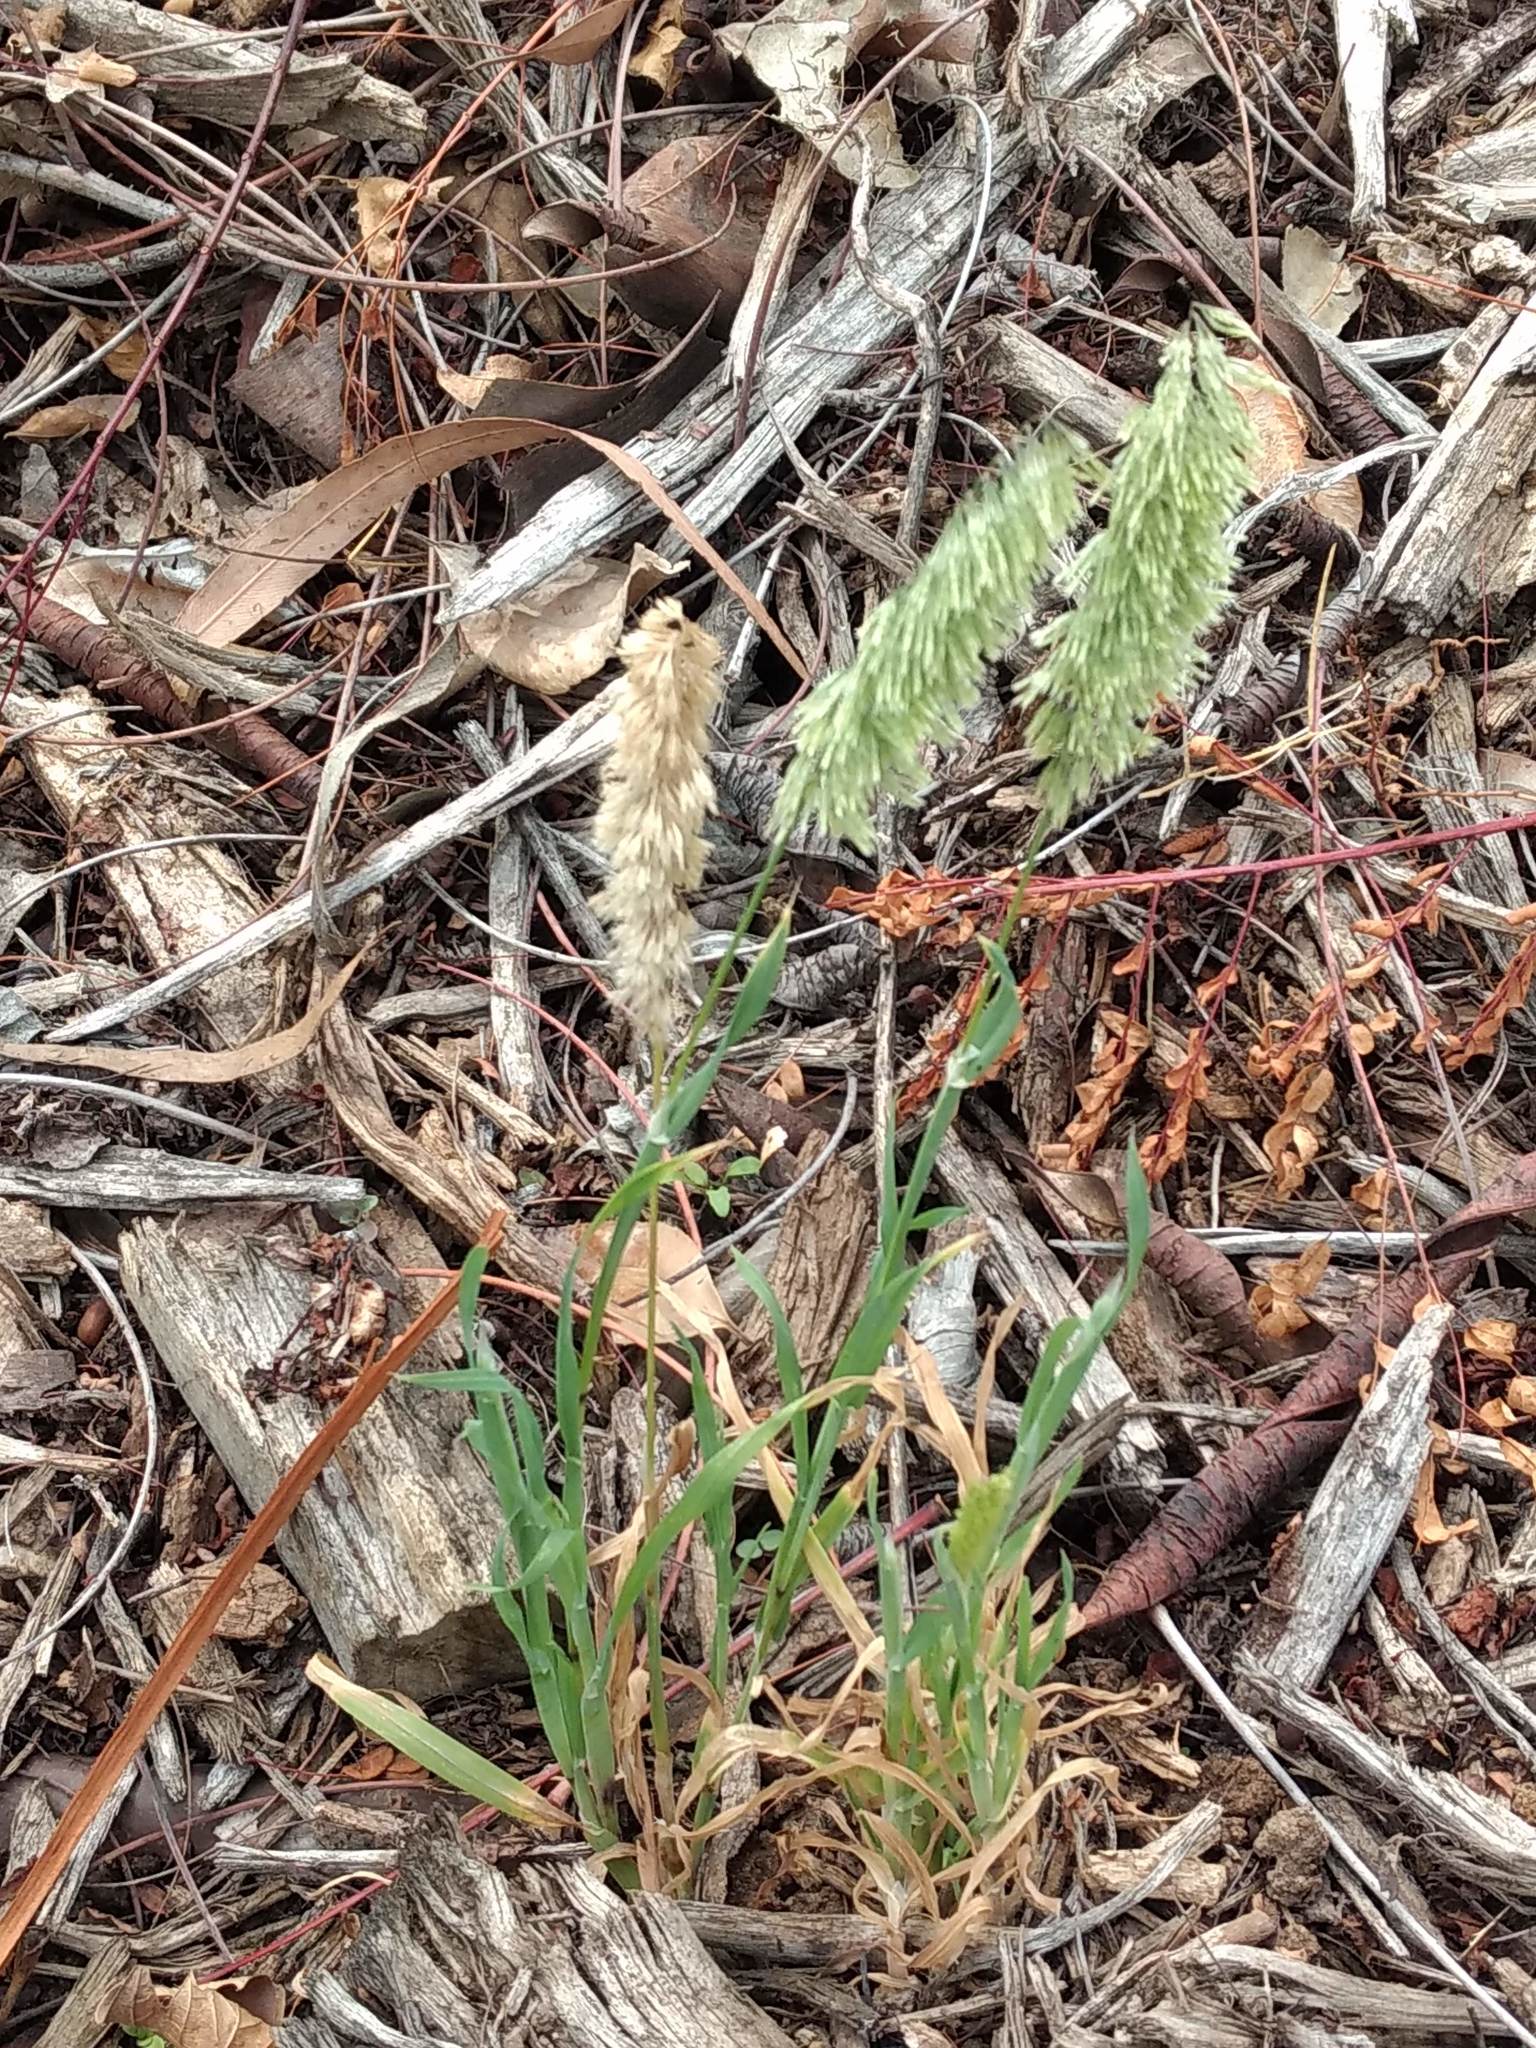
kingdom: Plantae
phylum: Tracheophyta
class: Liliopsida
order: Poales
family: Poaceae
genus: Lamarckia
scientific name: Lamarckia aurea
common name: Golden dog's-tail
